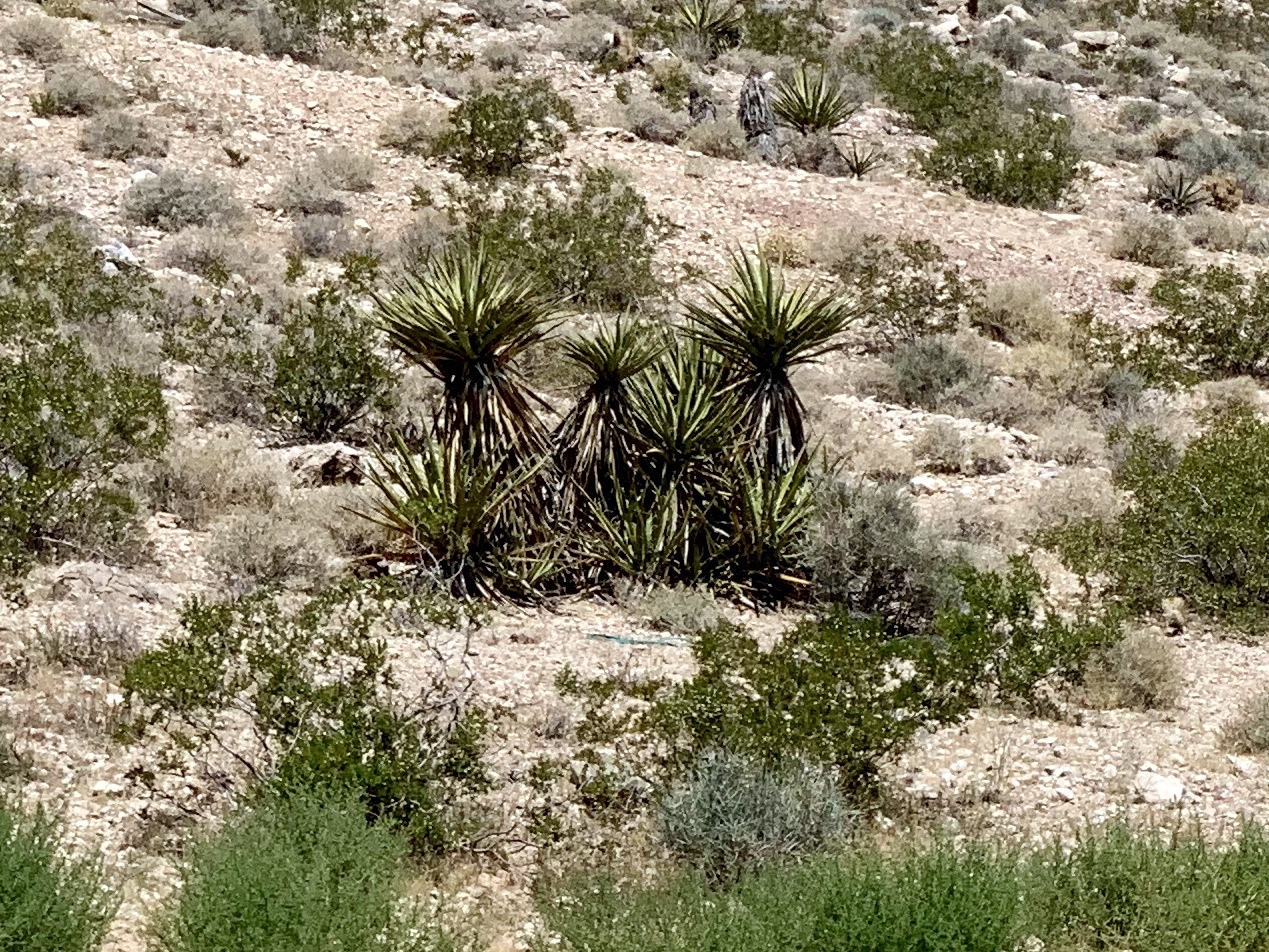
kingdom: Plantae
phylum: Tracheophyta
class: Liliopsida
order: Asparagales
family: Asparagaceae
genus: Yucca
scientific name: Yucca schidigera
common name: Mojave yucca
